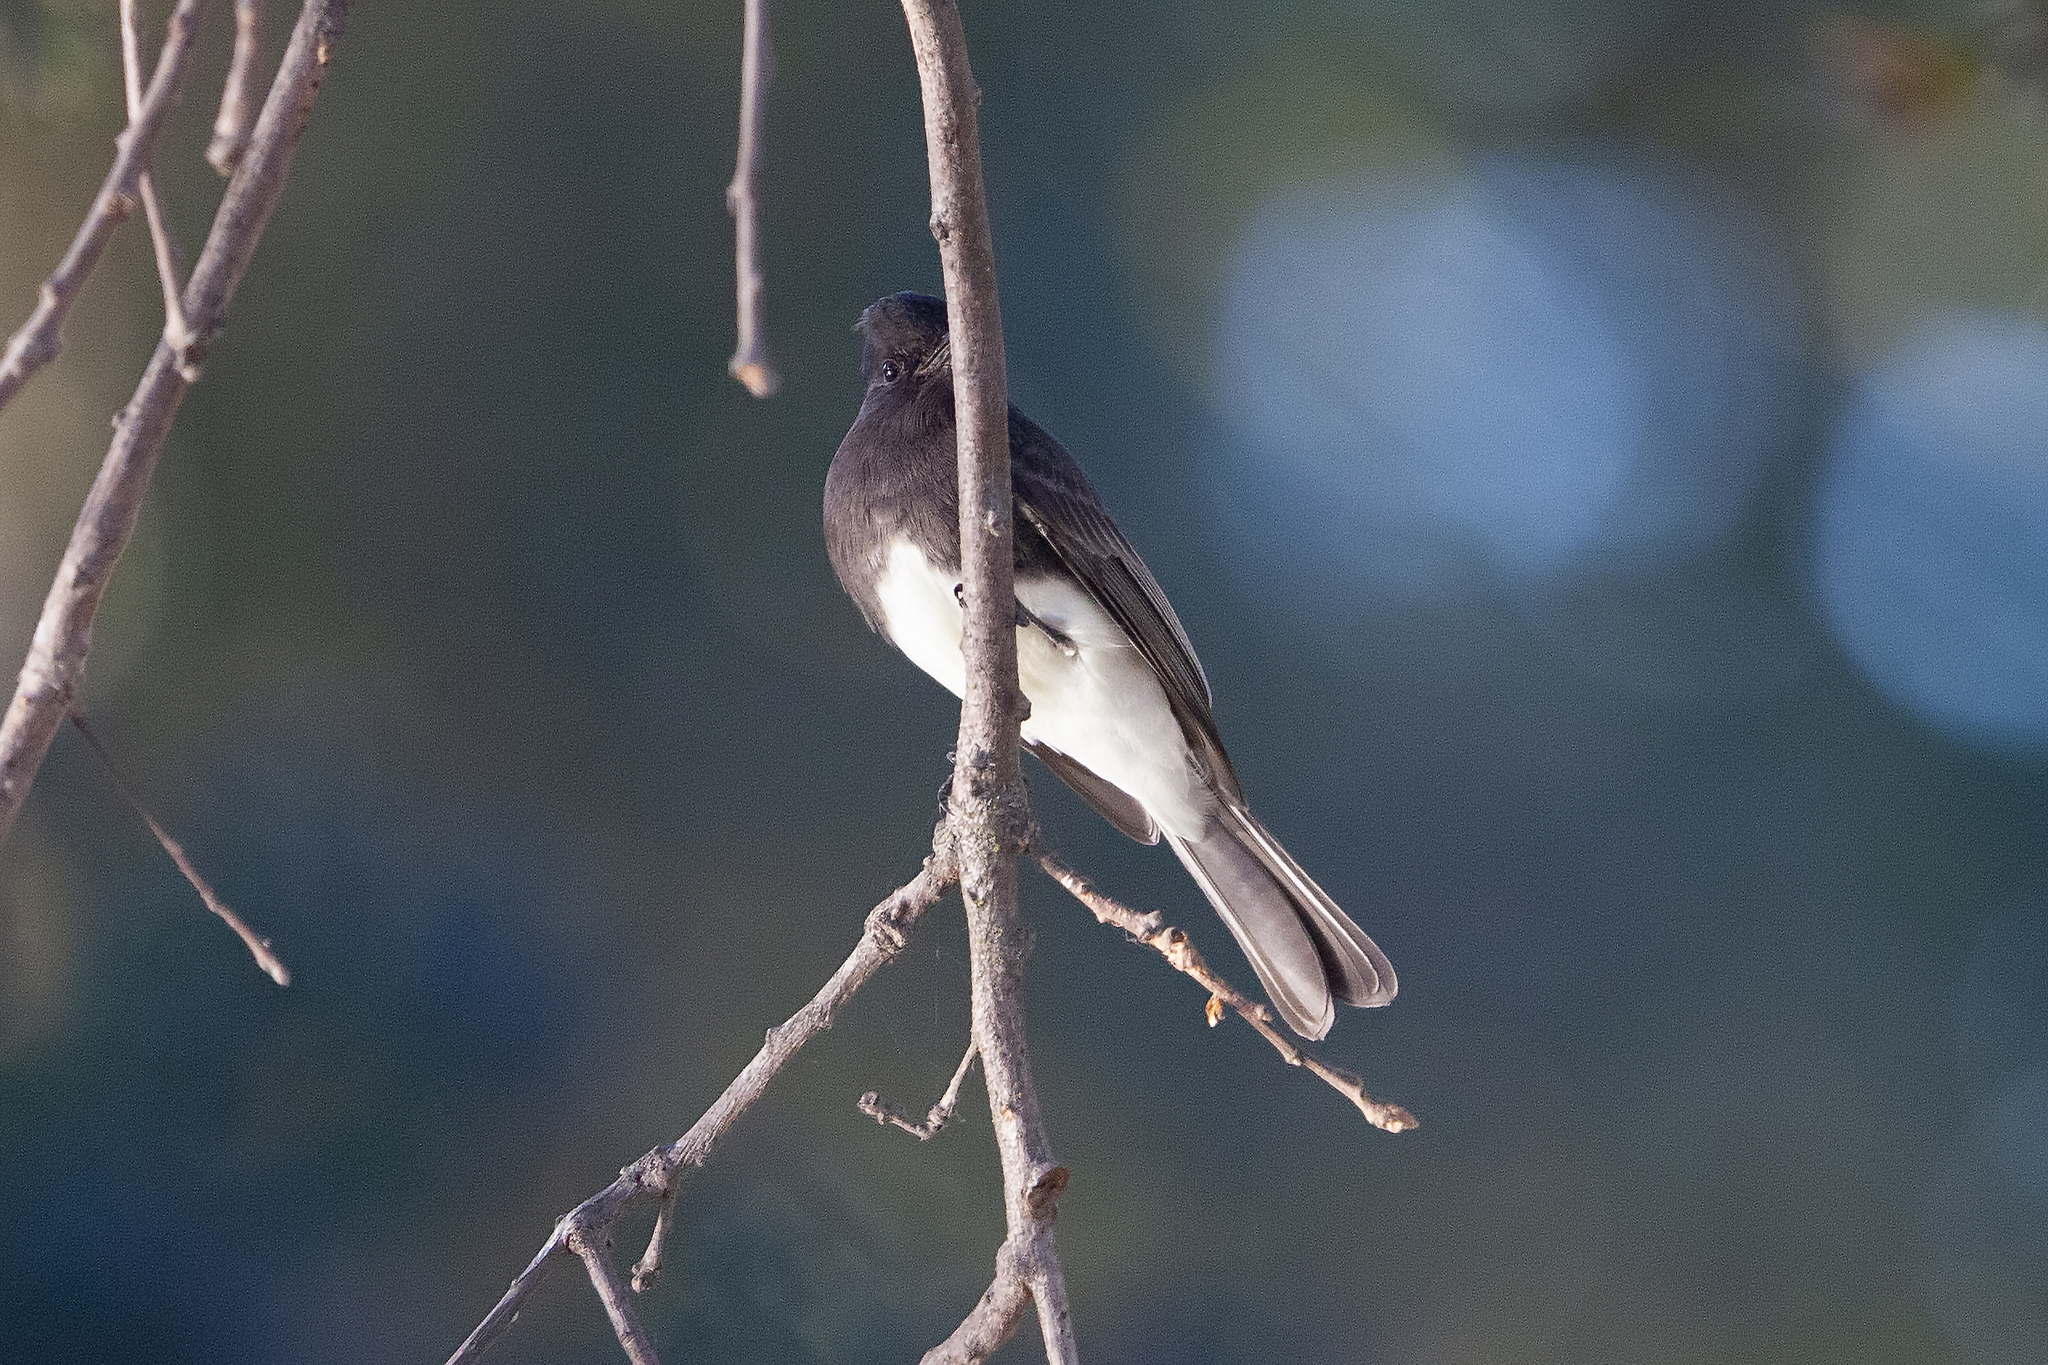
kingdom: Animalia
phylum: Chordata
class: Aves
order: Passeriformes
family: Tyrannidae
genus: Sayornis
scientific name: Sayornis nigricans
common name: Black phoebe
